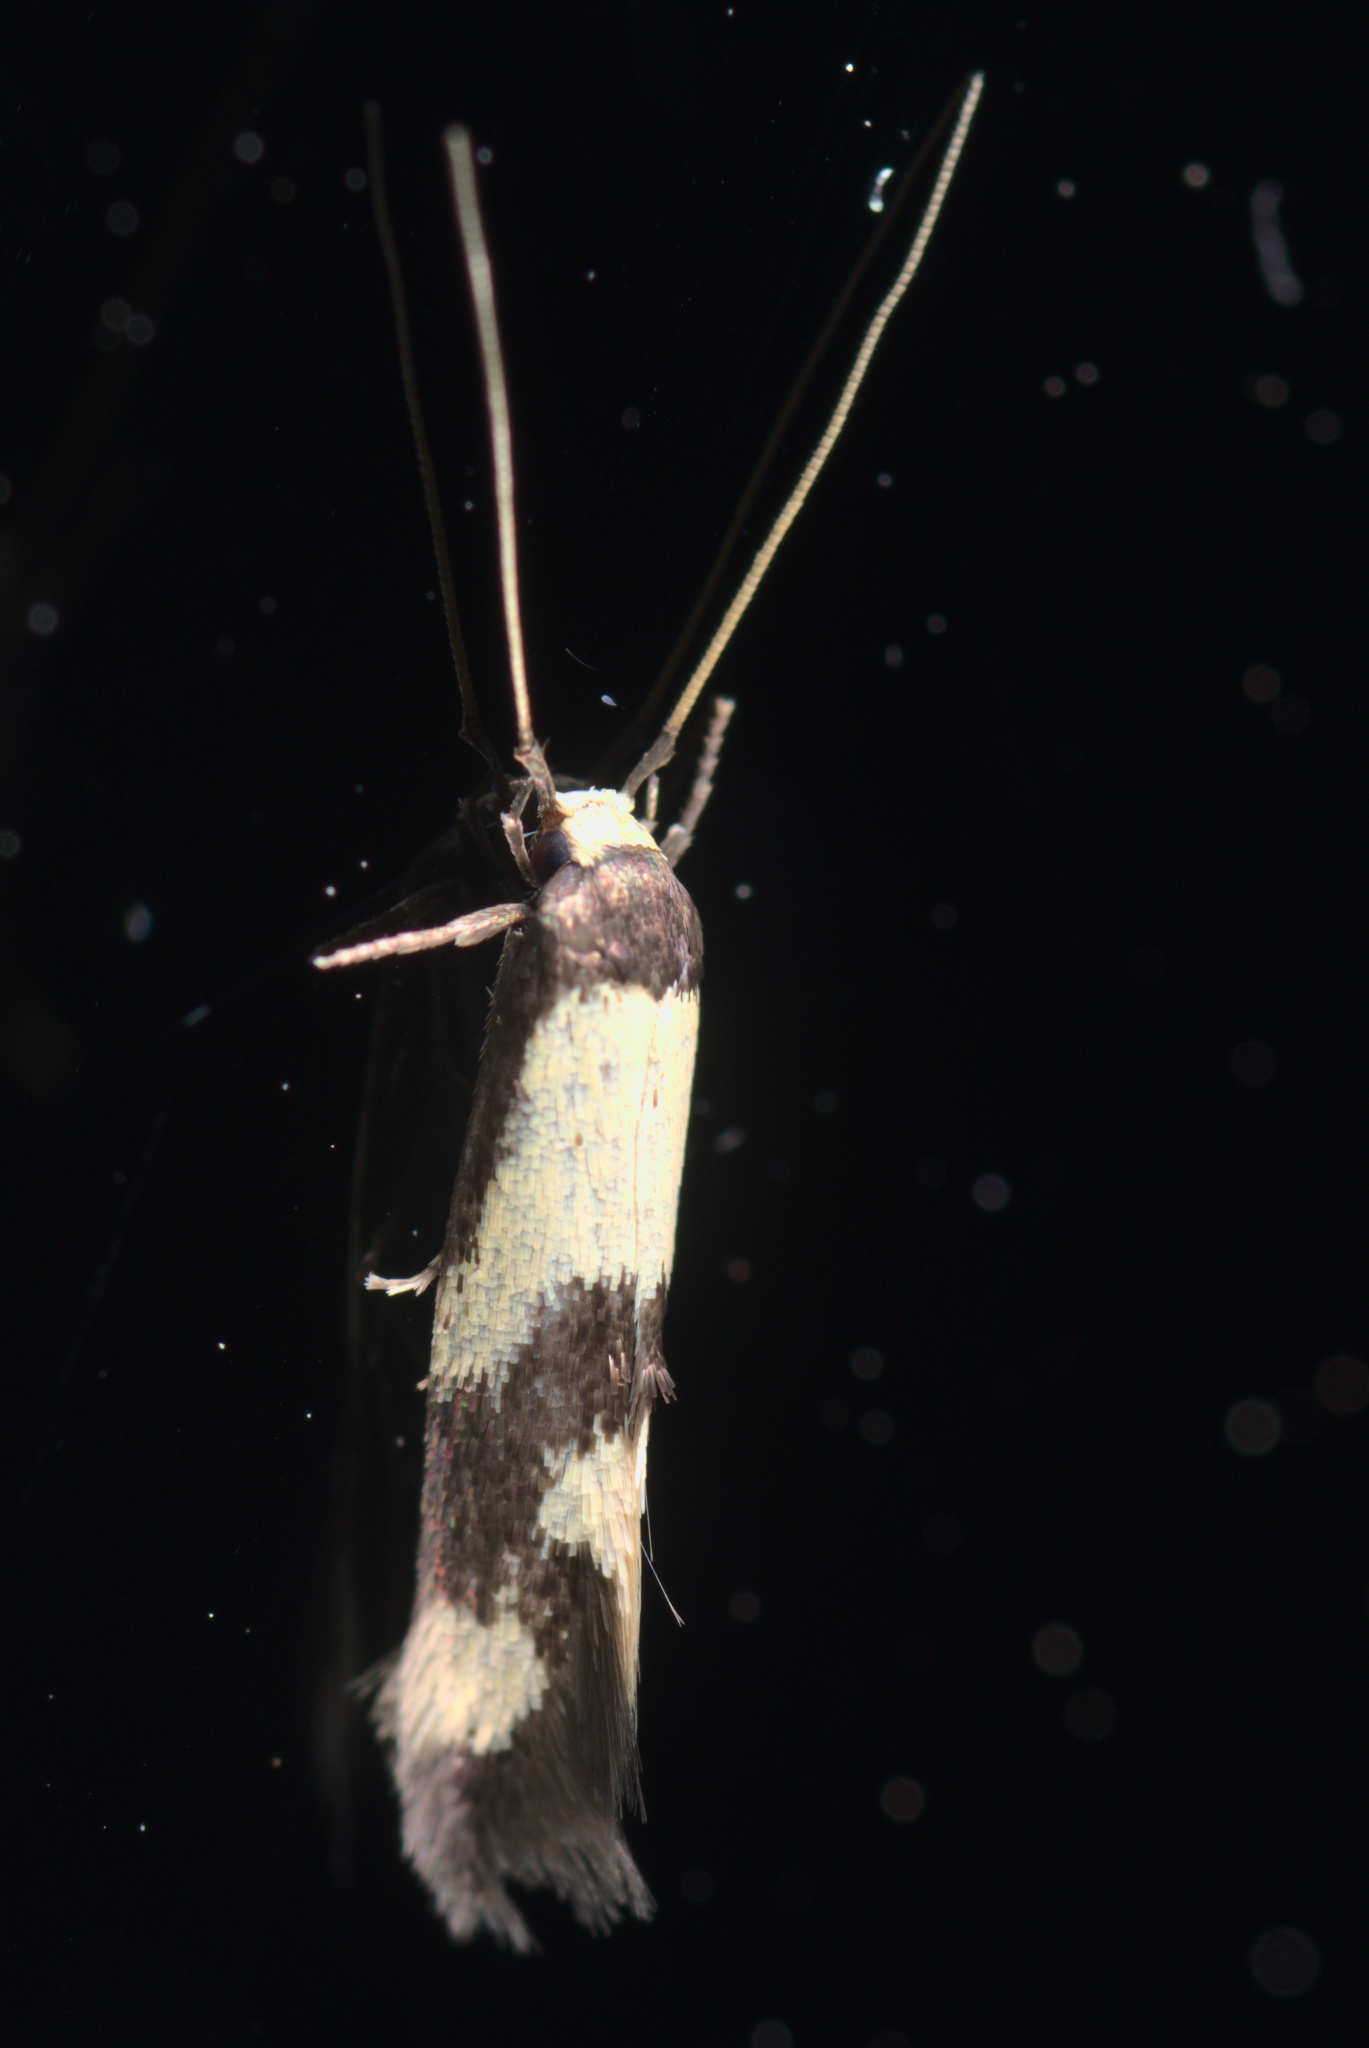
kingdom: Animalia
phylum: Arthropoda
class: Insecta
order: Lepidoptera
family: Tineidae
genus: Opogona
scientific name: Opogona comptella
